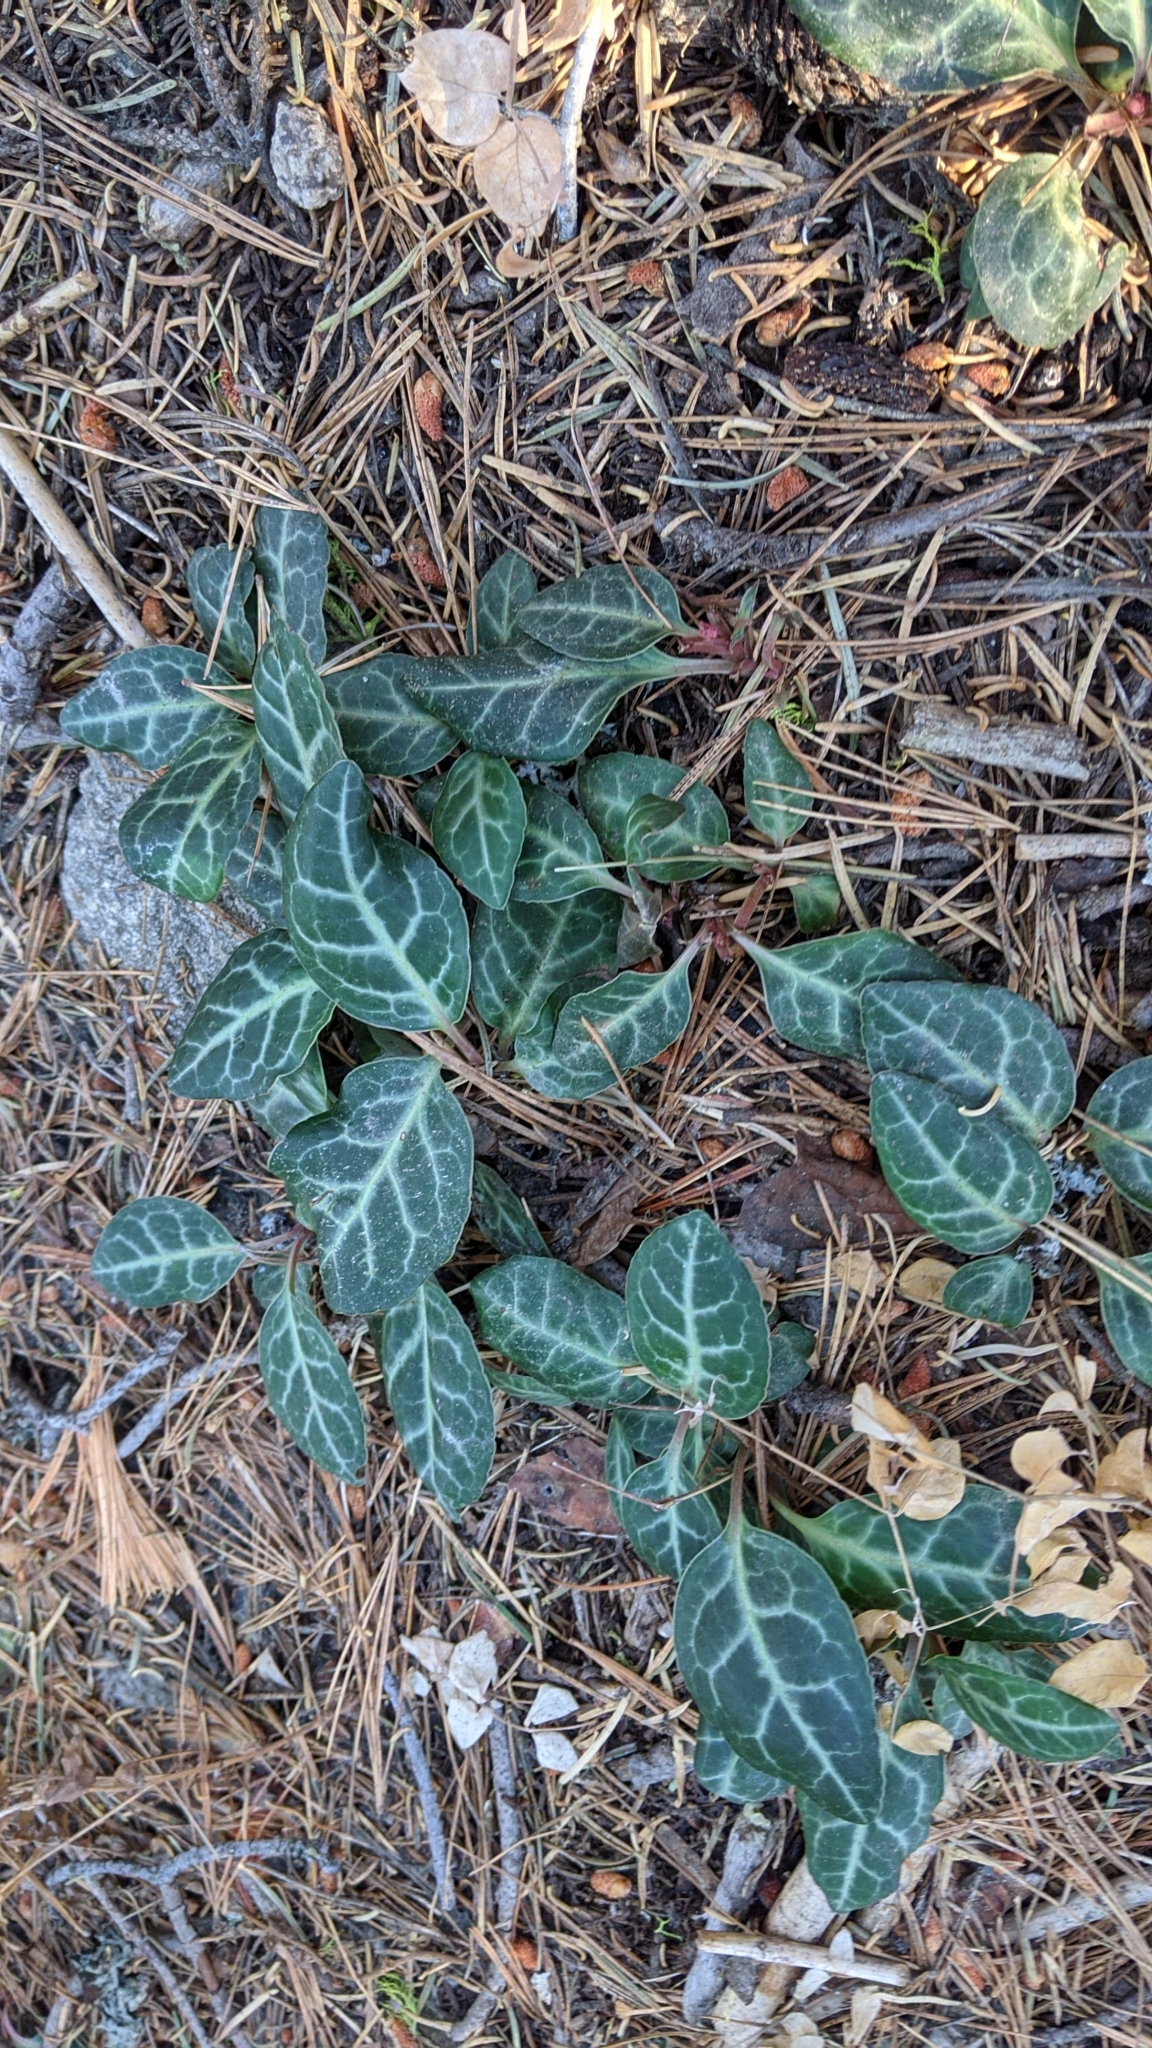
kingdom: Plantae
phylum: Tracheophyta
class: Magnoliopsida
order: Ericales
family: Ericaceae
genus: Pyrola
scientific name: Pyrola picta
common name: White-vein wintergreen
